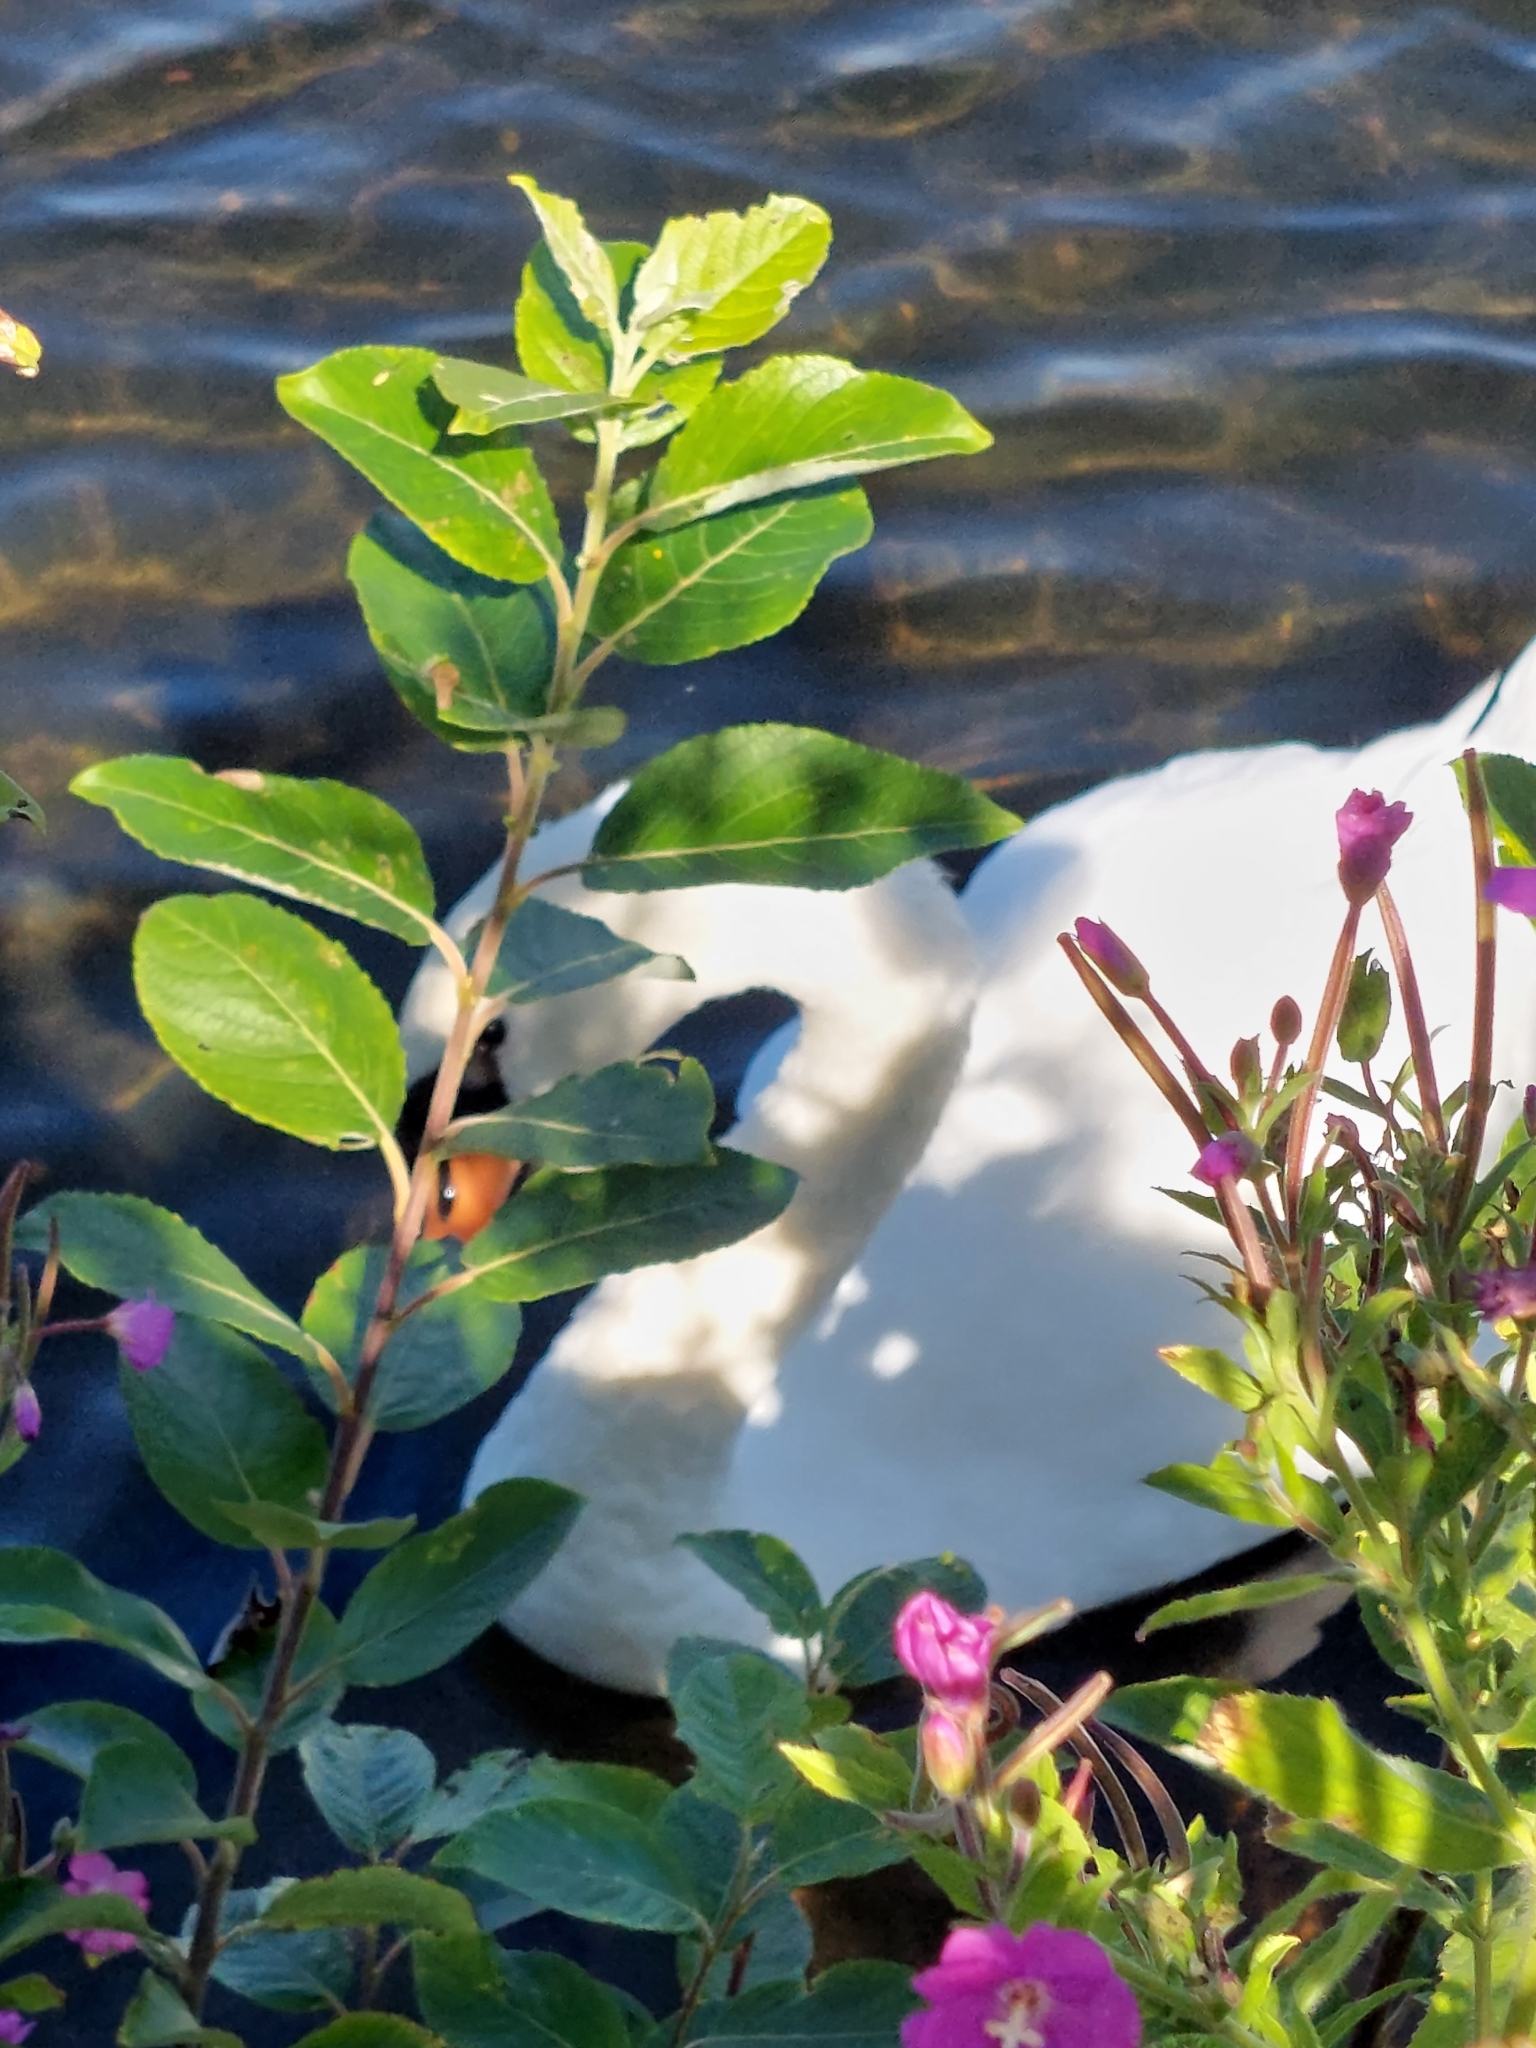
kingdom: Animalia
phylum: Chordata
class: Aves
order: Anseriformes
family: Anatidae
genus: Cygnus
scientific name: Cygnus olor
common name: Mute swan
